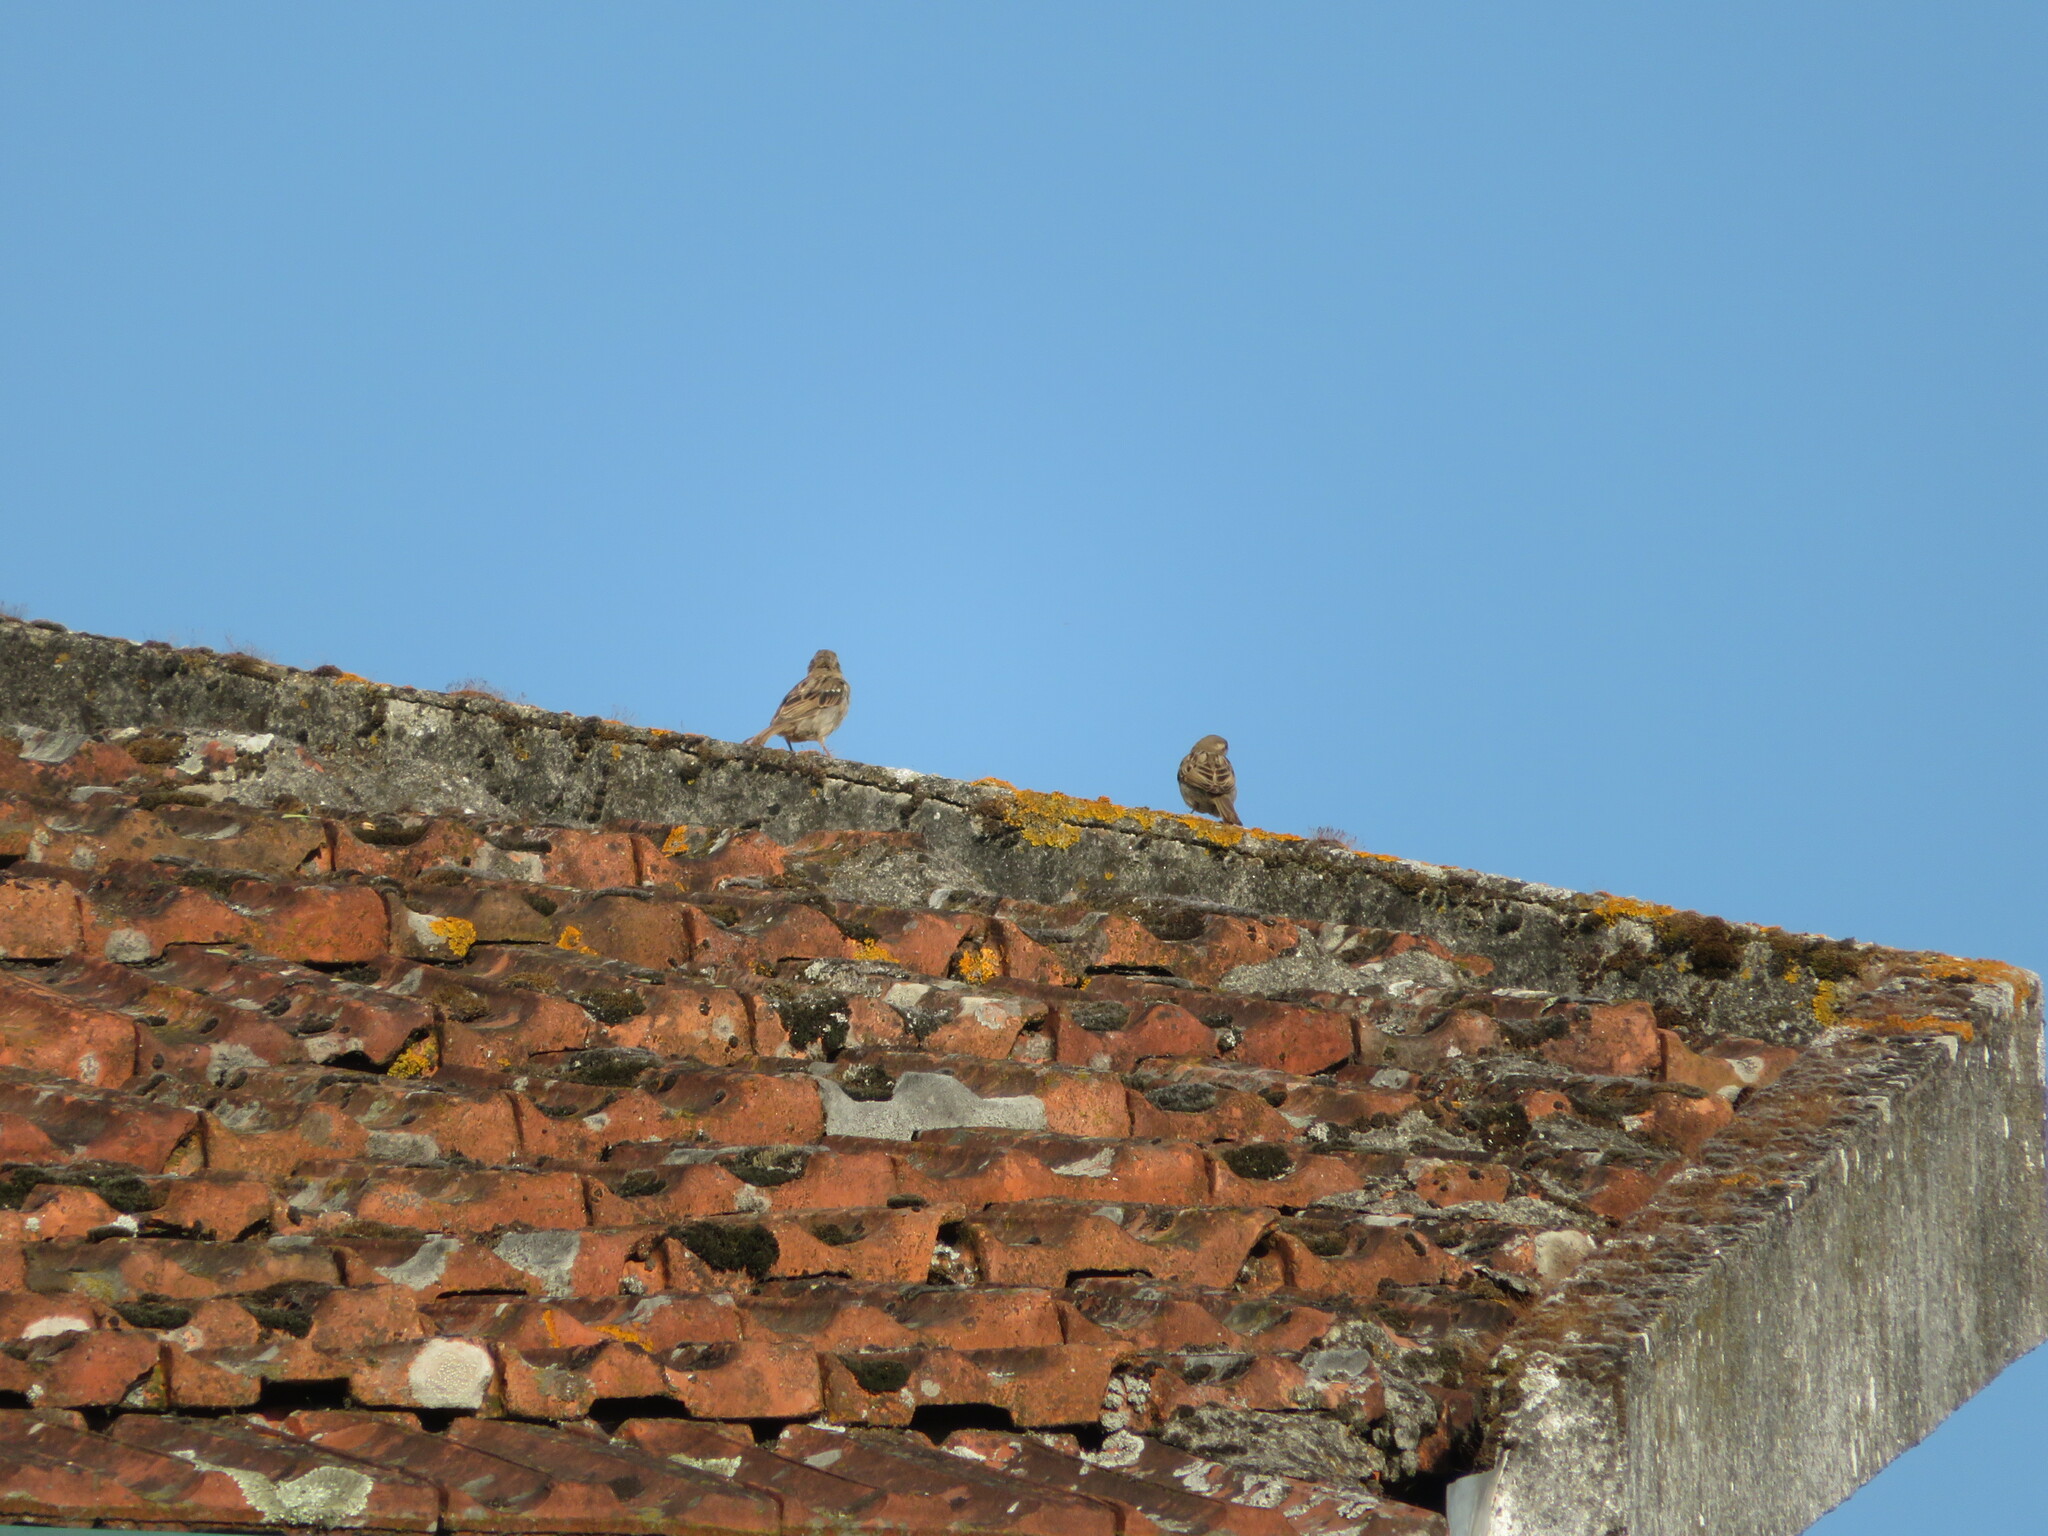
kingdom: Animalia
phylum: Chordata
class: Aves
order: Passeriformes
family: Passeridae
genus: Passer
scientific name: Passer domesticus
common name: House sparrow
